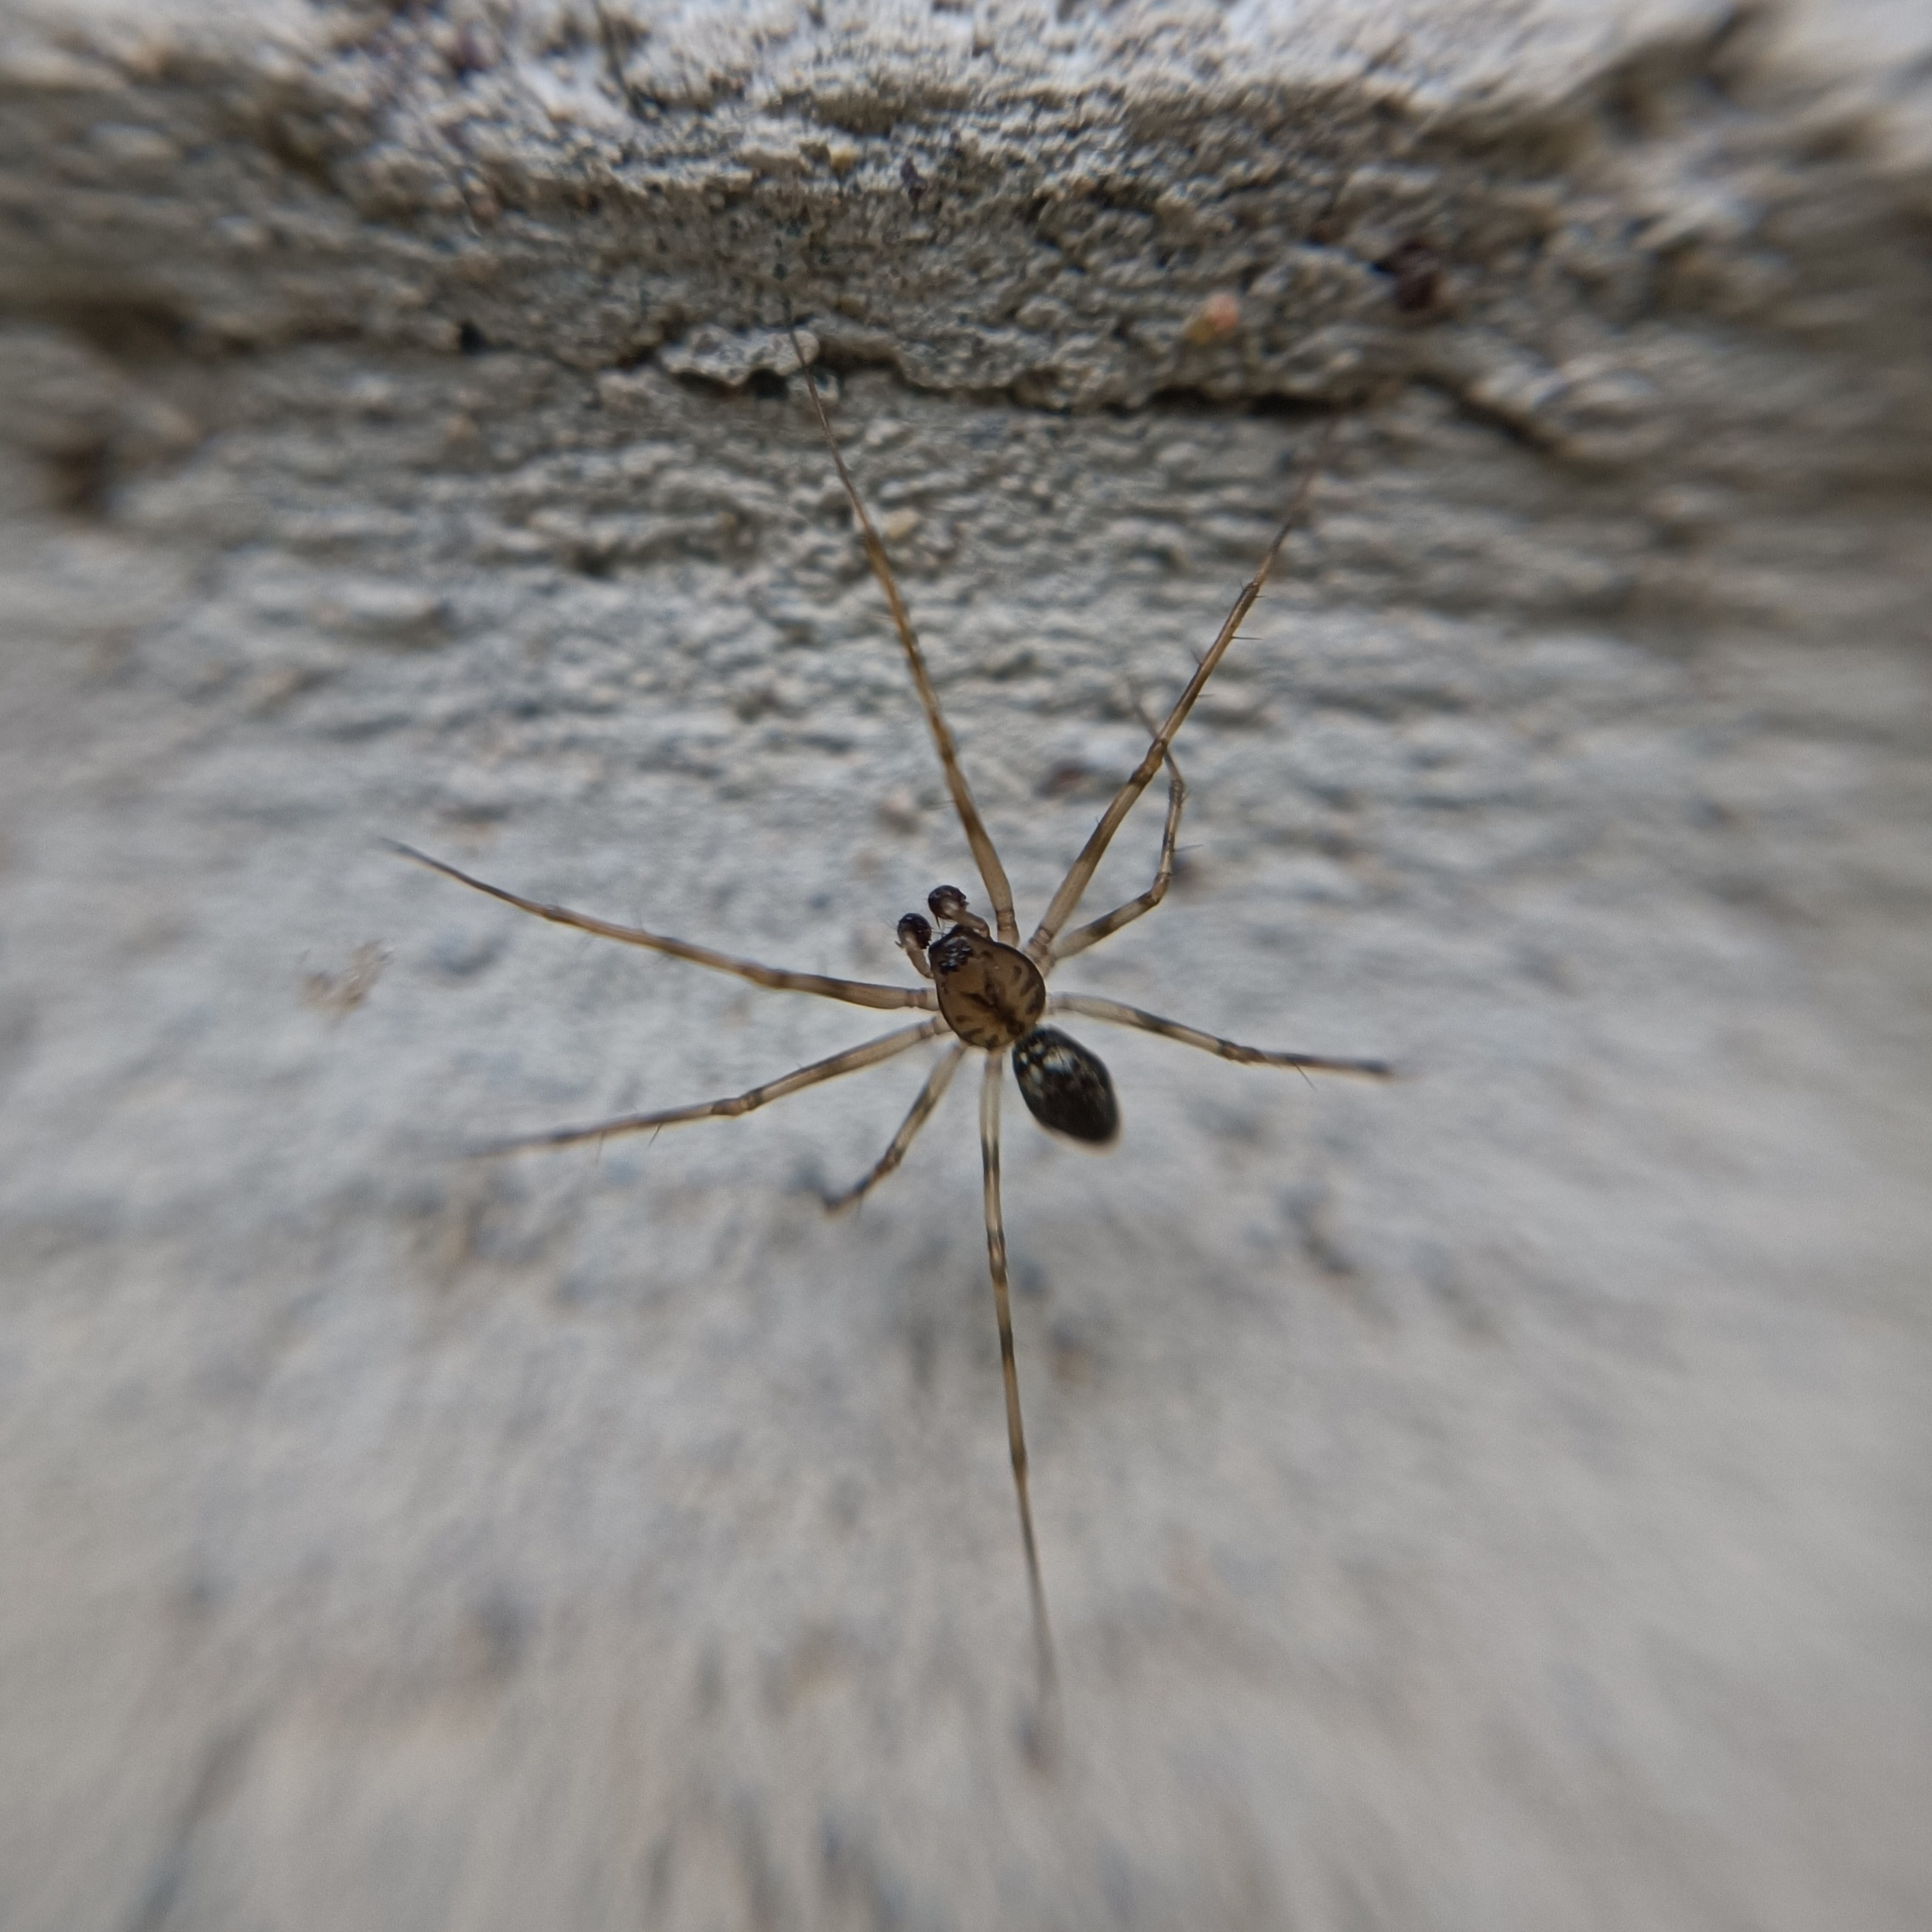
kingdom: Animalia
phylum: Arthropoda
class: Arachnida
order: Araneae
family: Linyphiidae
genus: Drapetisca
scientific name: Drapetisca socialis
